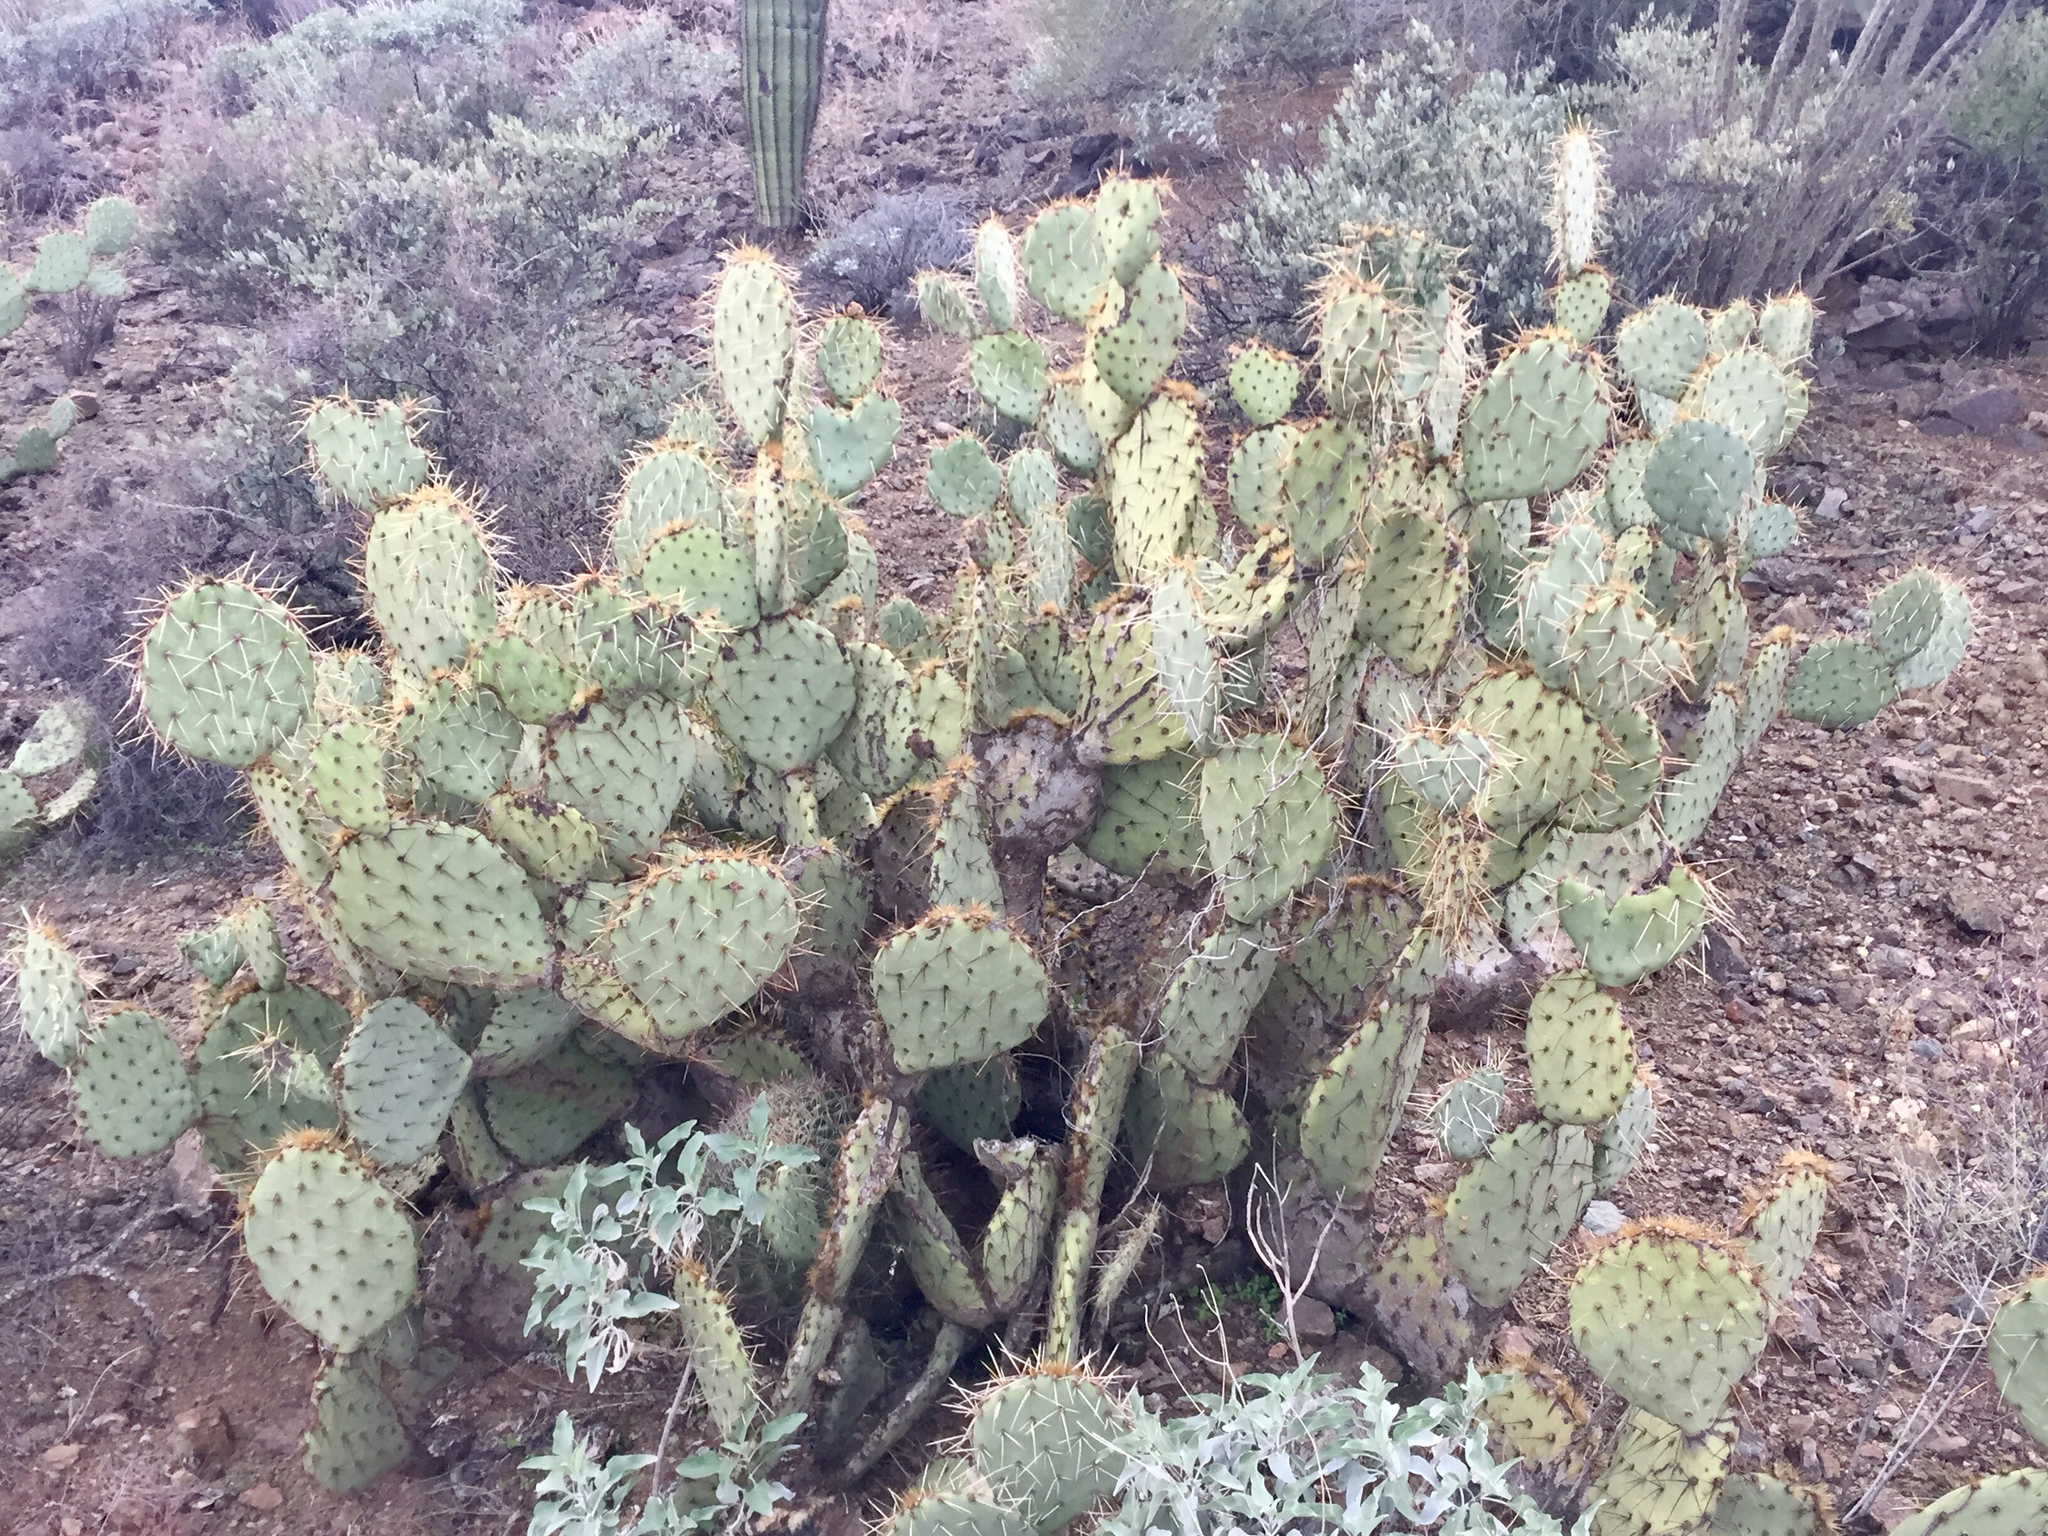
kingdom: Plantae
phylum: Tracheophyta
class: Magnoliopsida
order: Caryophyllales
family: Cactaceae
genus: Opuntia
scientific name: Opuntia engelmannii
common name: Cactus-apple
